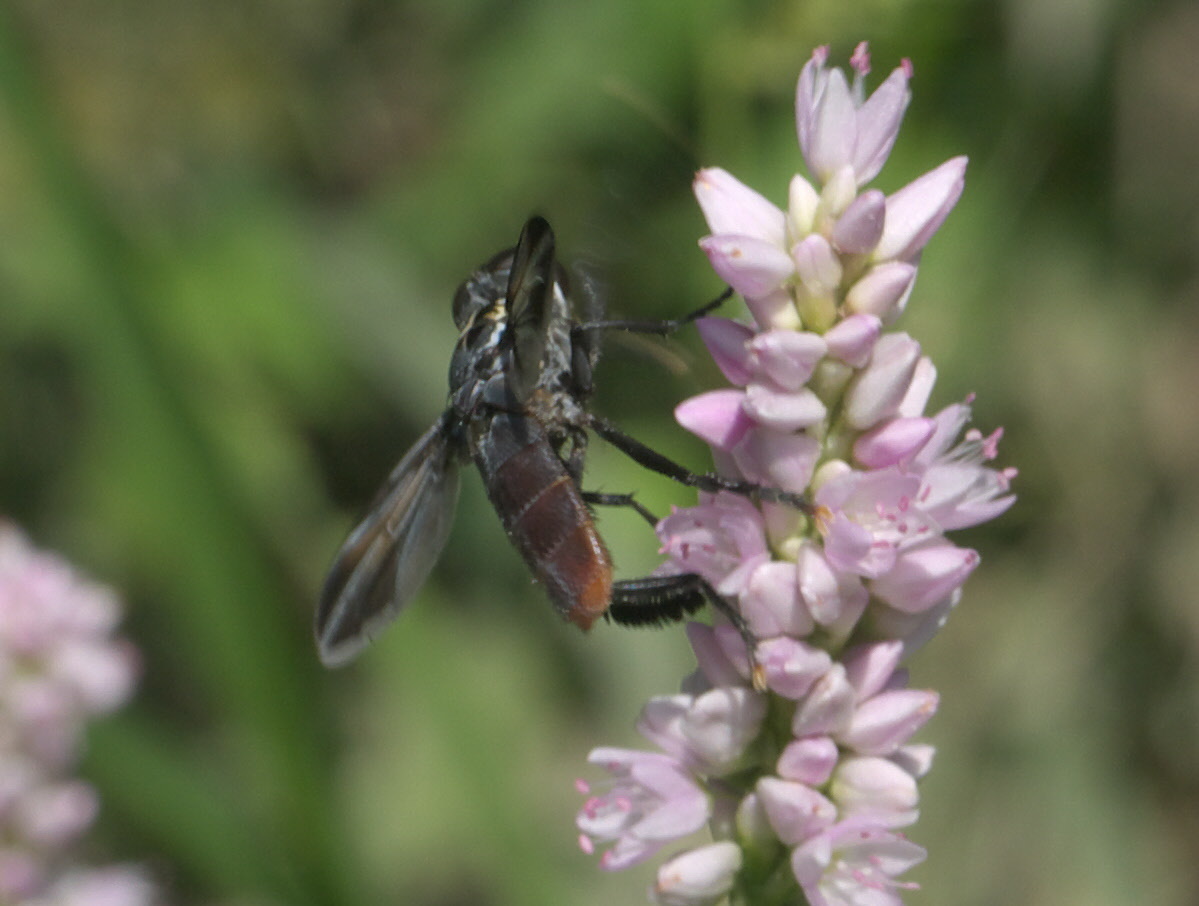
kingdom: Animalia
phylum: Arthropoda
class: Insecta
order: Diptera
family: Tachinidae
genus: Trichopoda
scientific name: Trichopoda lanipes
